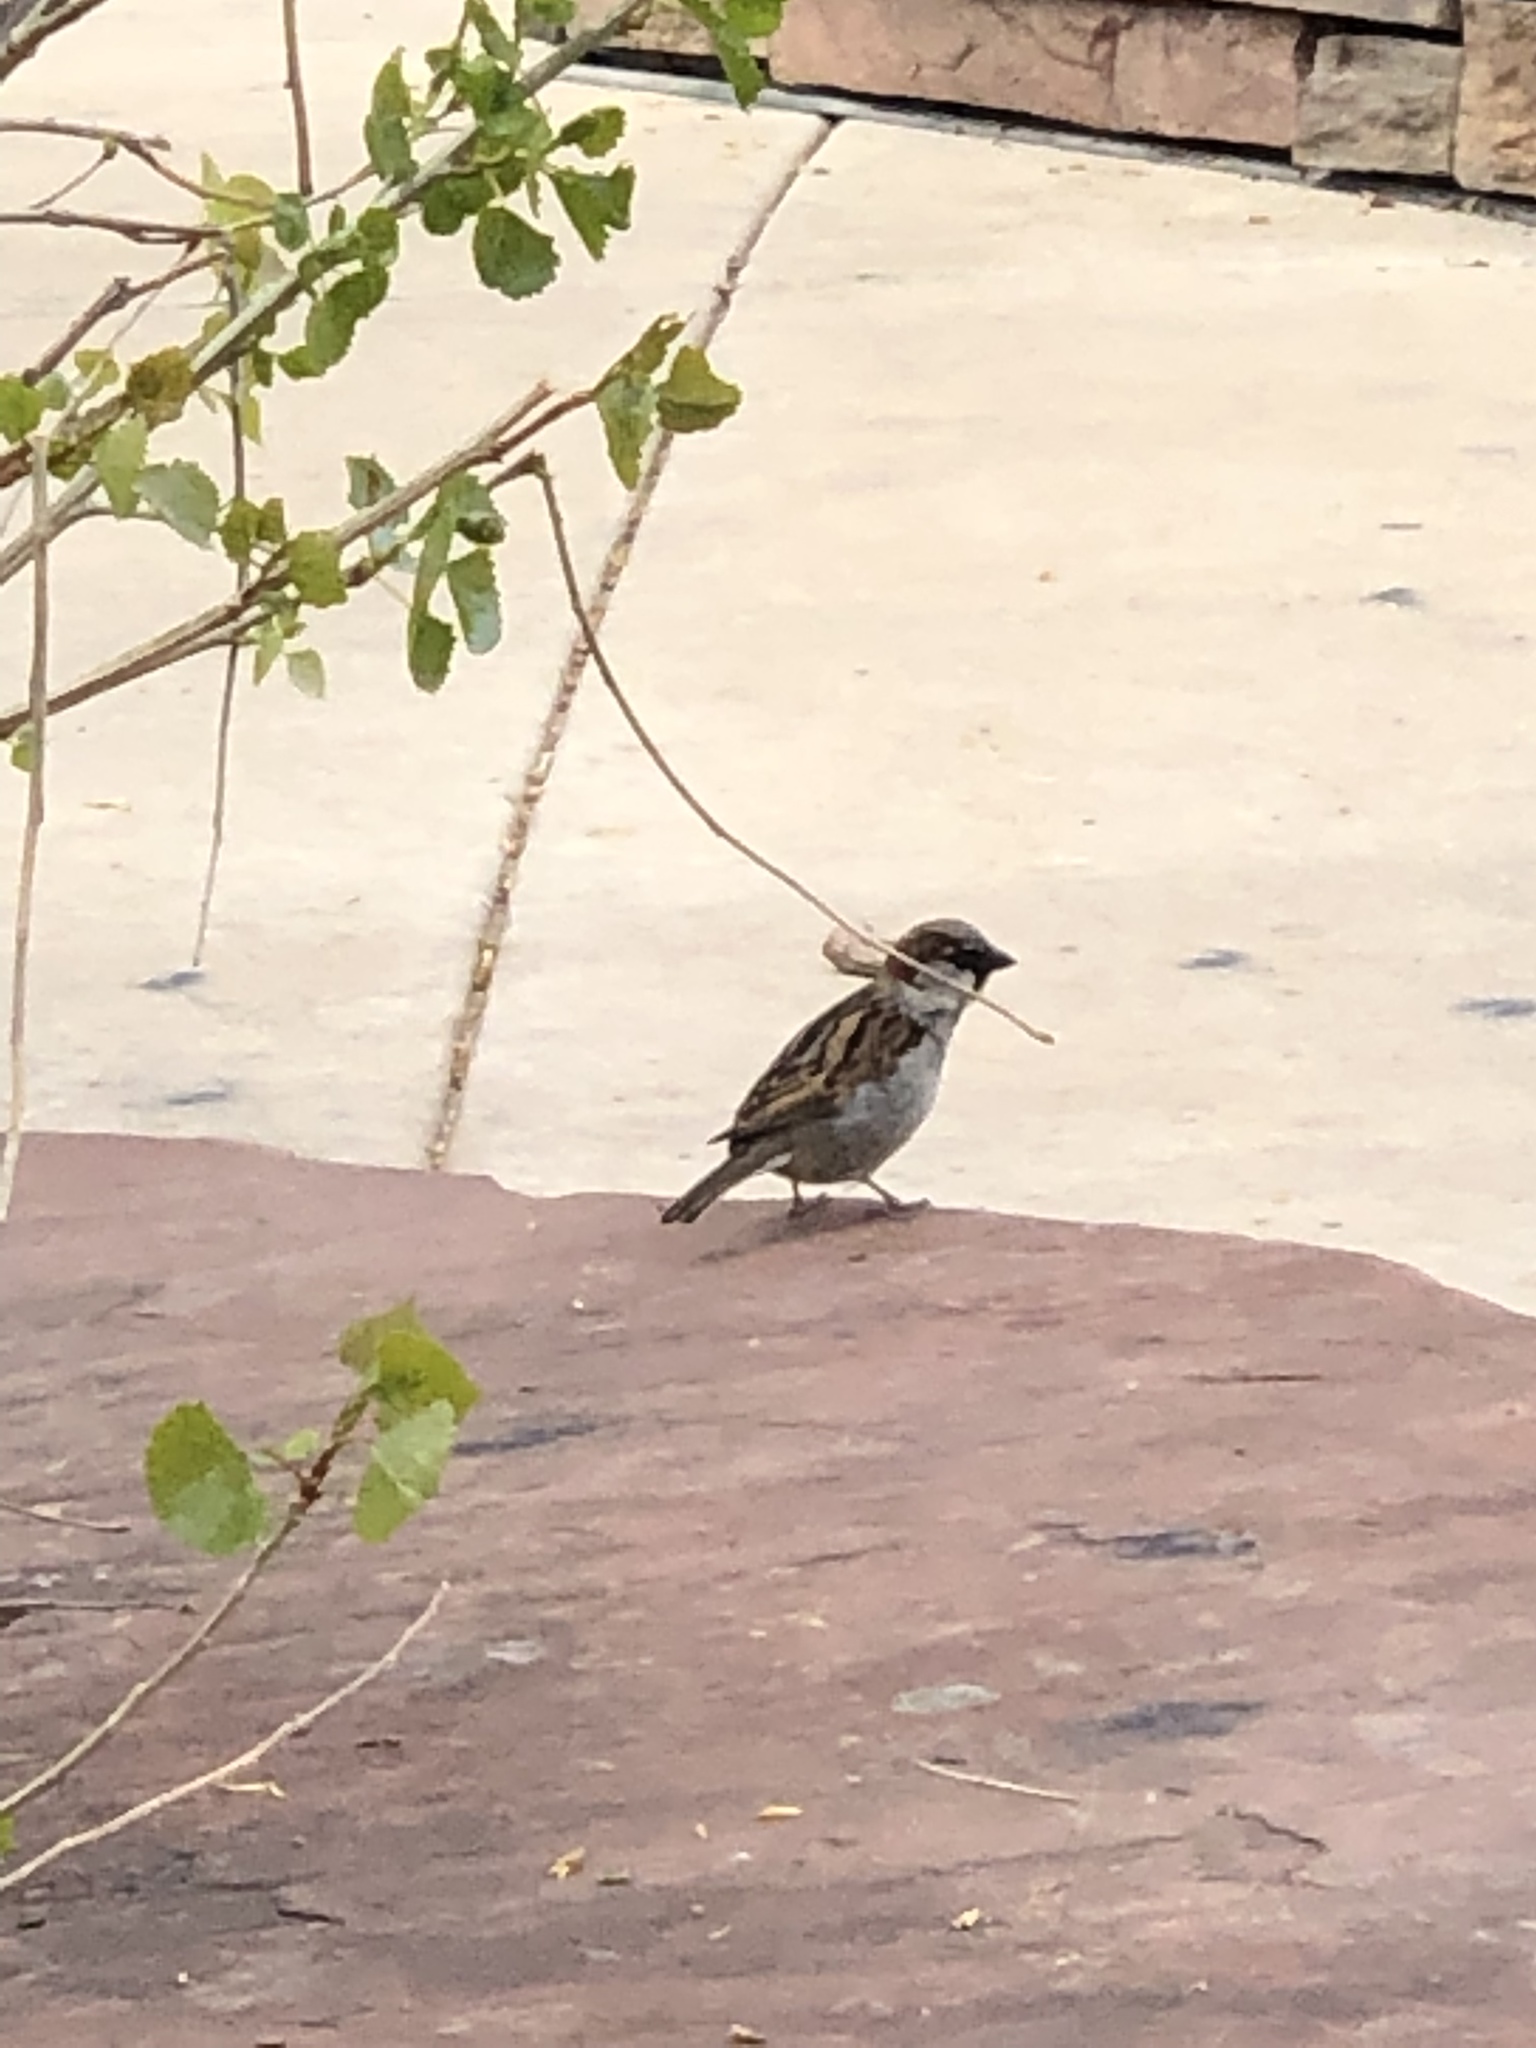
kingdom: Animalia
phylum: Chordata
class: Aves
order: Passeriformes
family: Passeridae
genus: Passer
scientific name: Passer domesticus
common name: House sparrow
